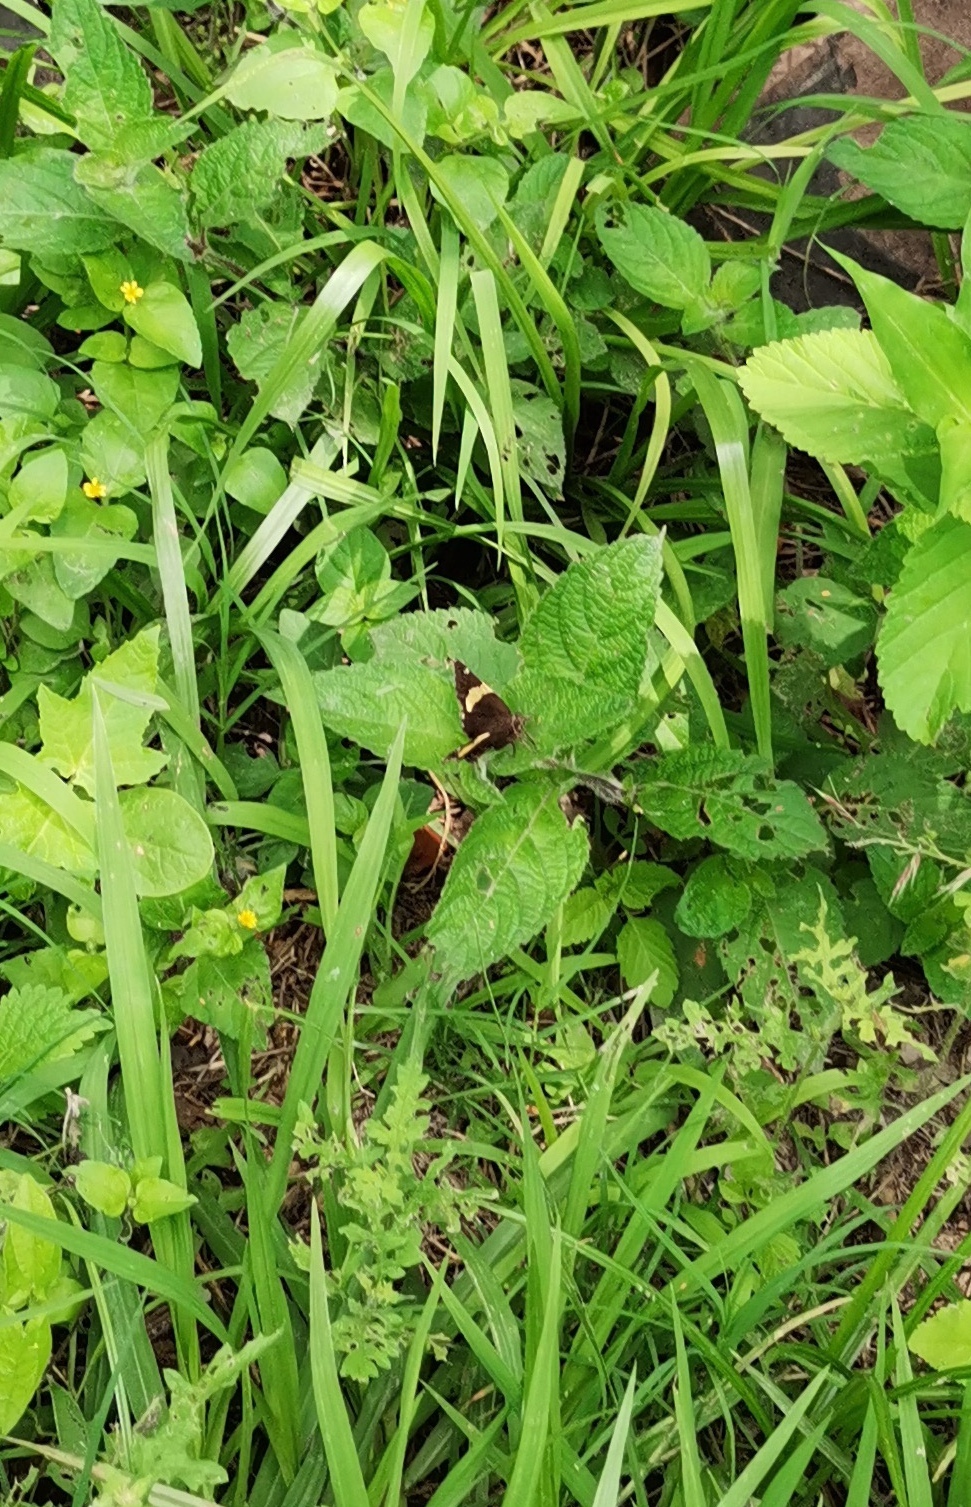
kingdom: Animalia
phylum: Arthropoda
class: Arachnida
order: Scorpiones
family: Bothriuridae
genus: Telegonus
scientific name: Telegonus cellus
